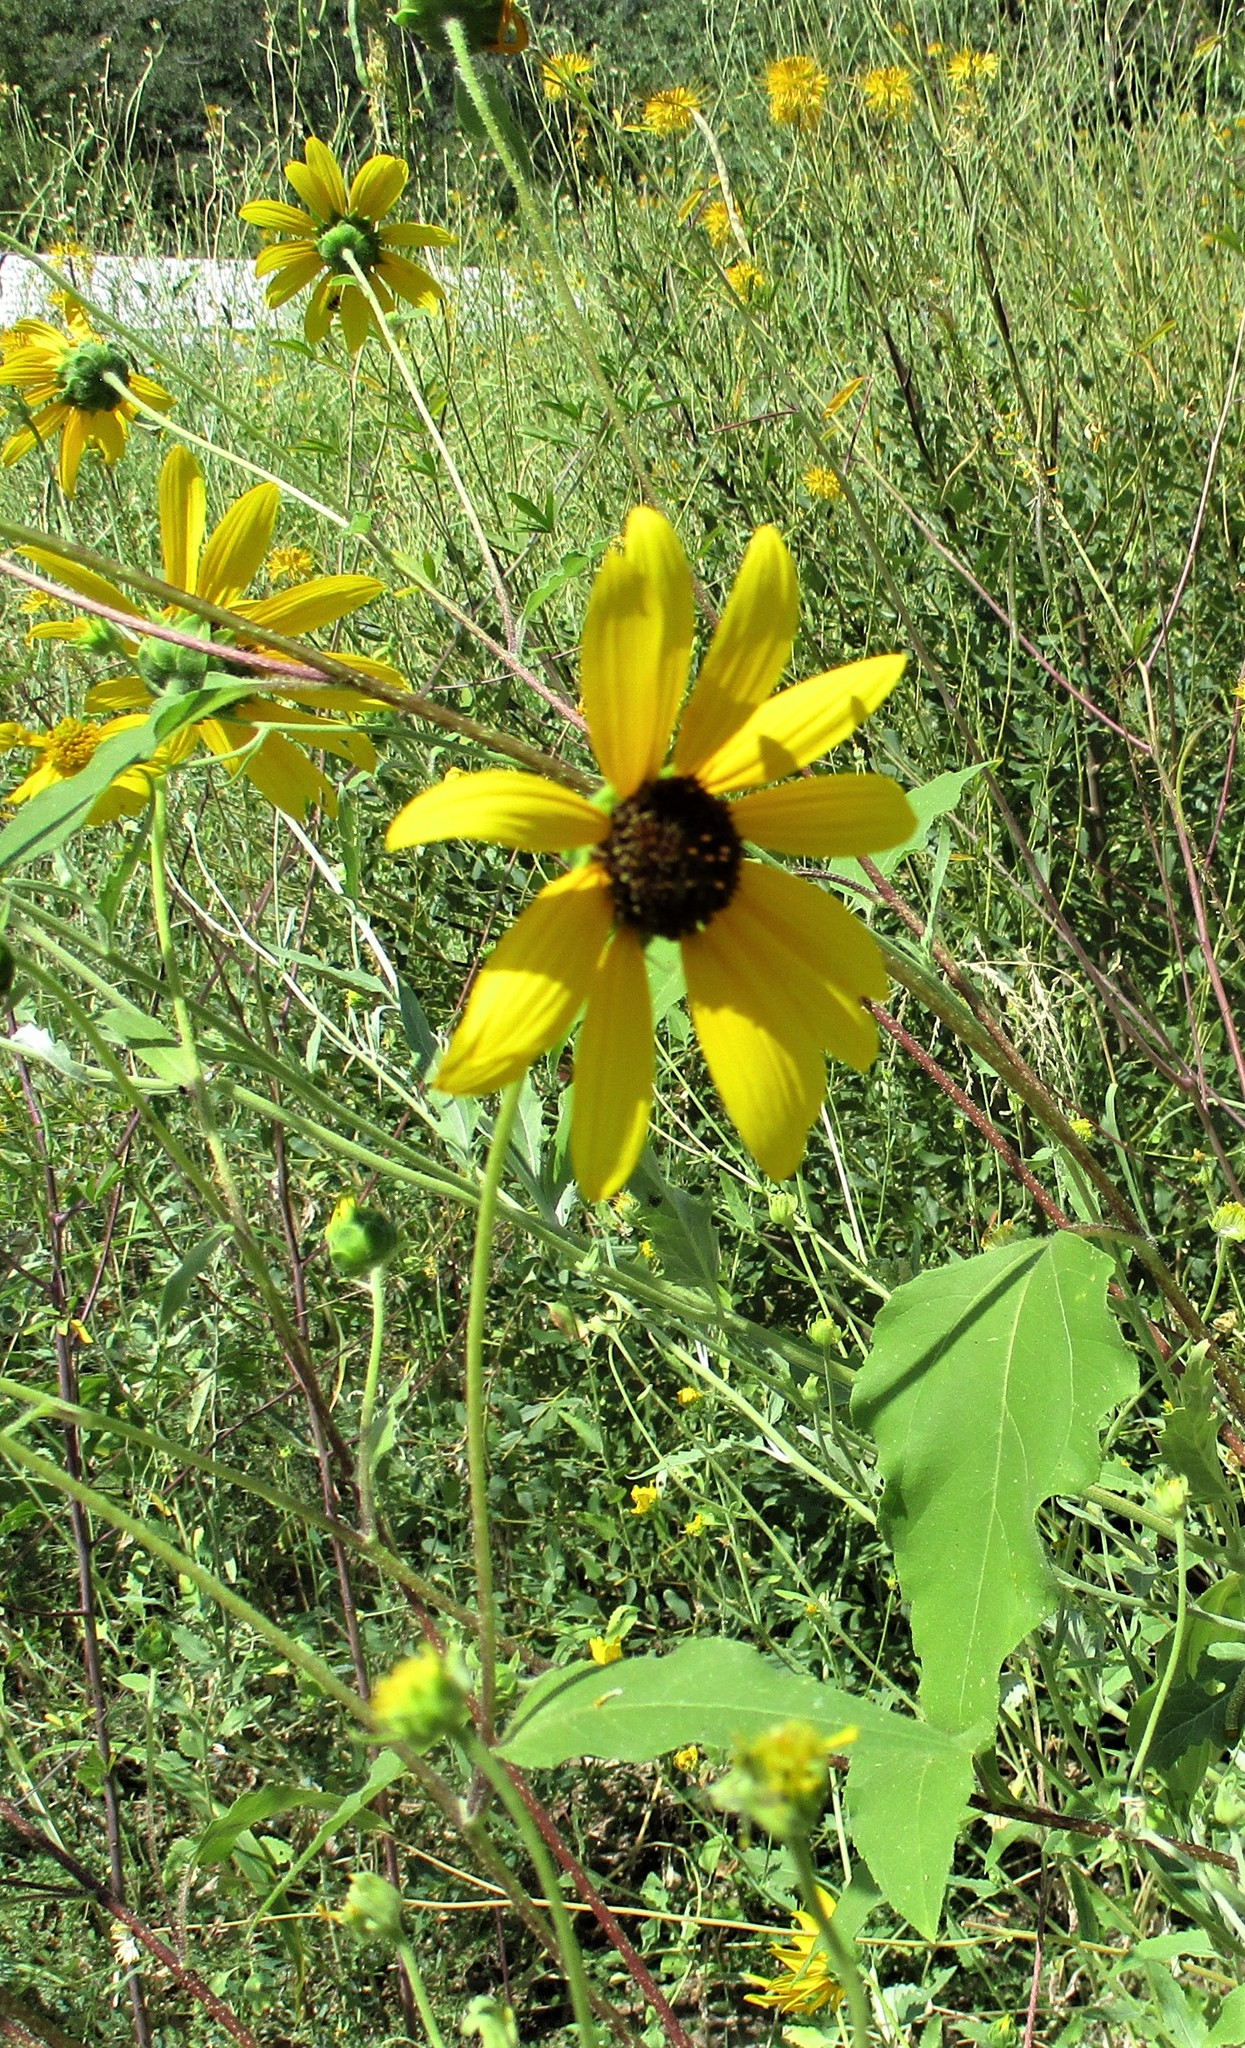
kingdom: Plantae
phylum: Tracheophyta
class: Magnoliopsida
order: Asterales
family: Asteraceae
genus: Helianthus
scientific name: Helianthus annuus
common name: Sunflower
